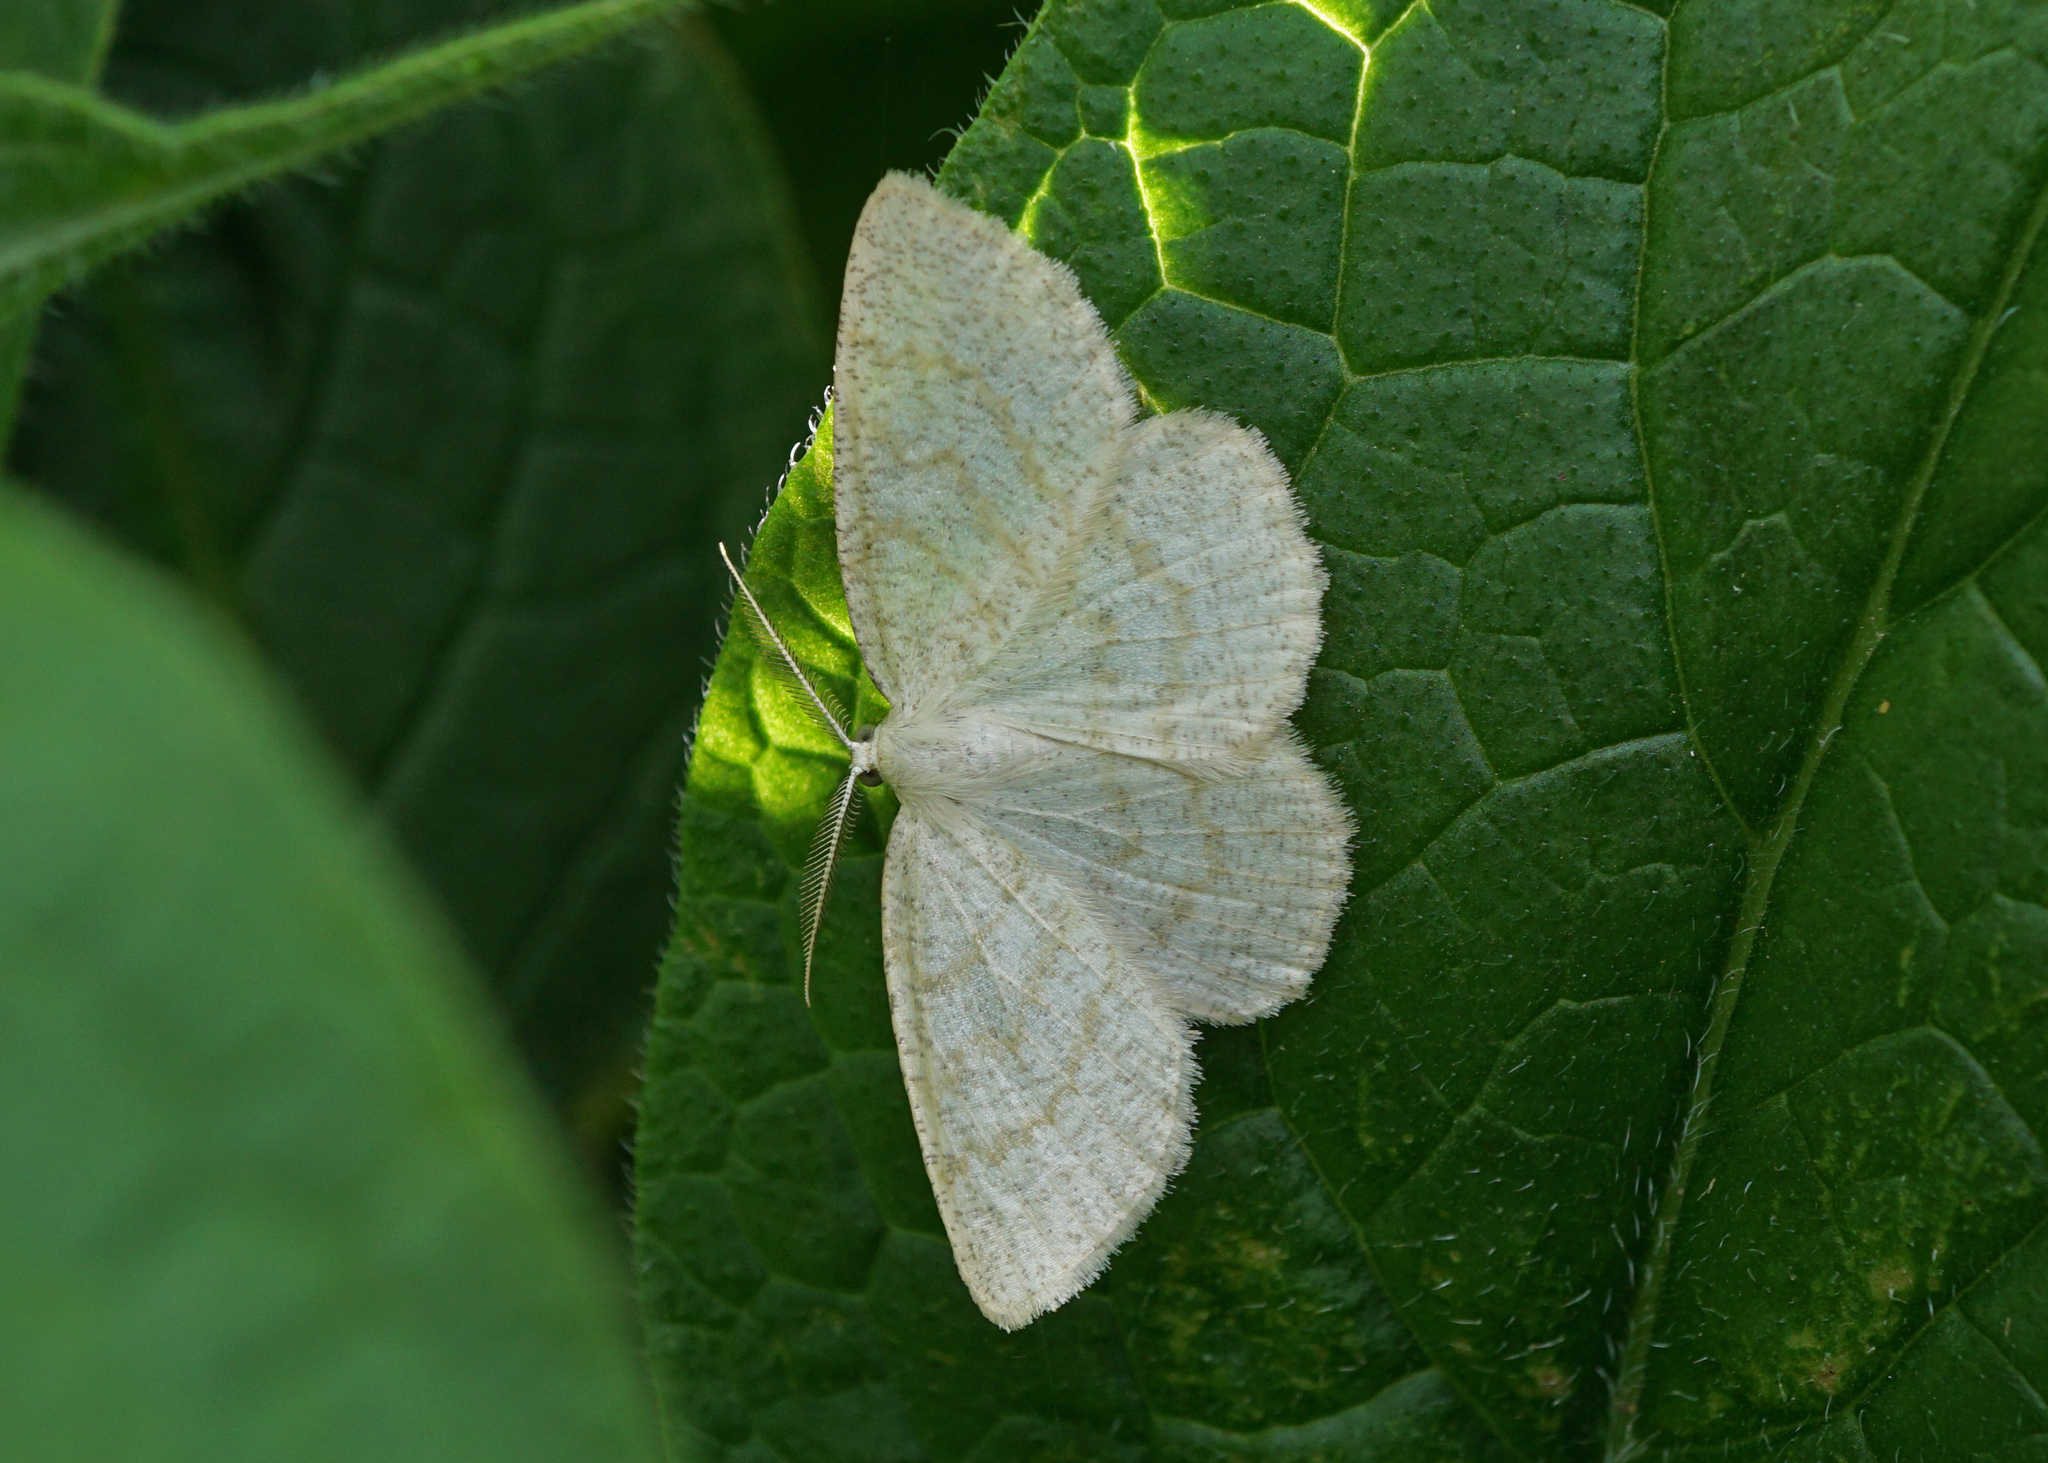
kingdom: Animalia
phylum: Arthropoda
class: Insecta
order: Lepidoptera
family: Geometridae
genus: Cabera
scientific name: Cabera exanthemata
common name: Common wave
